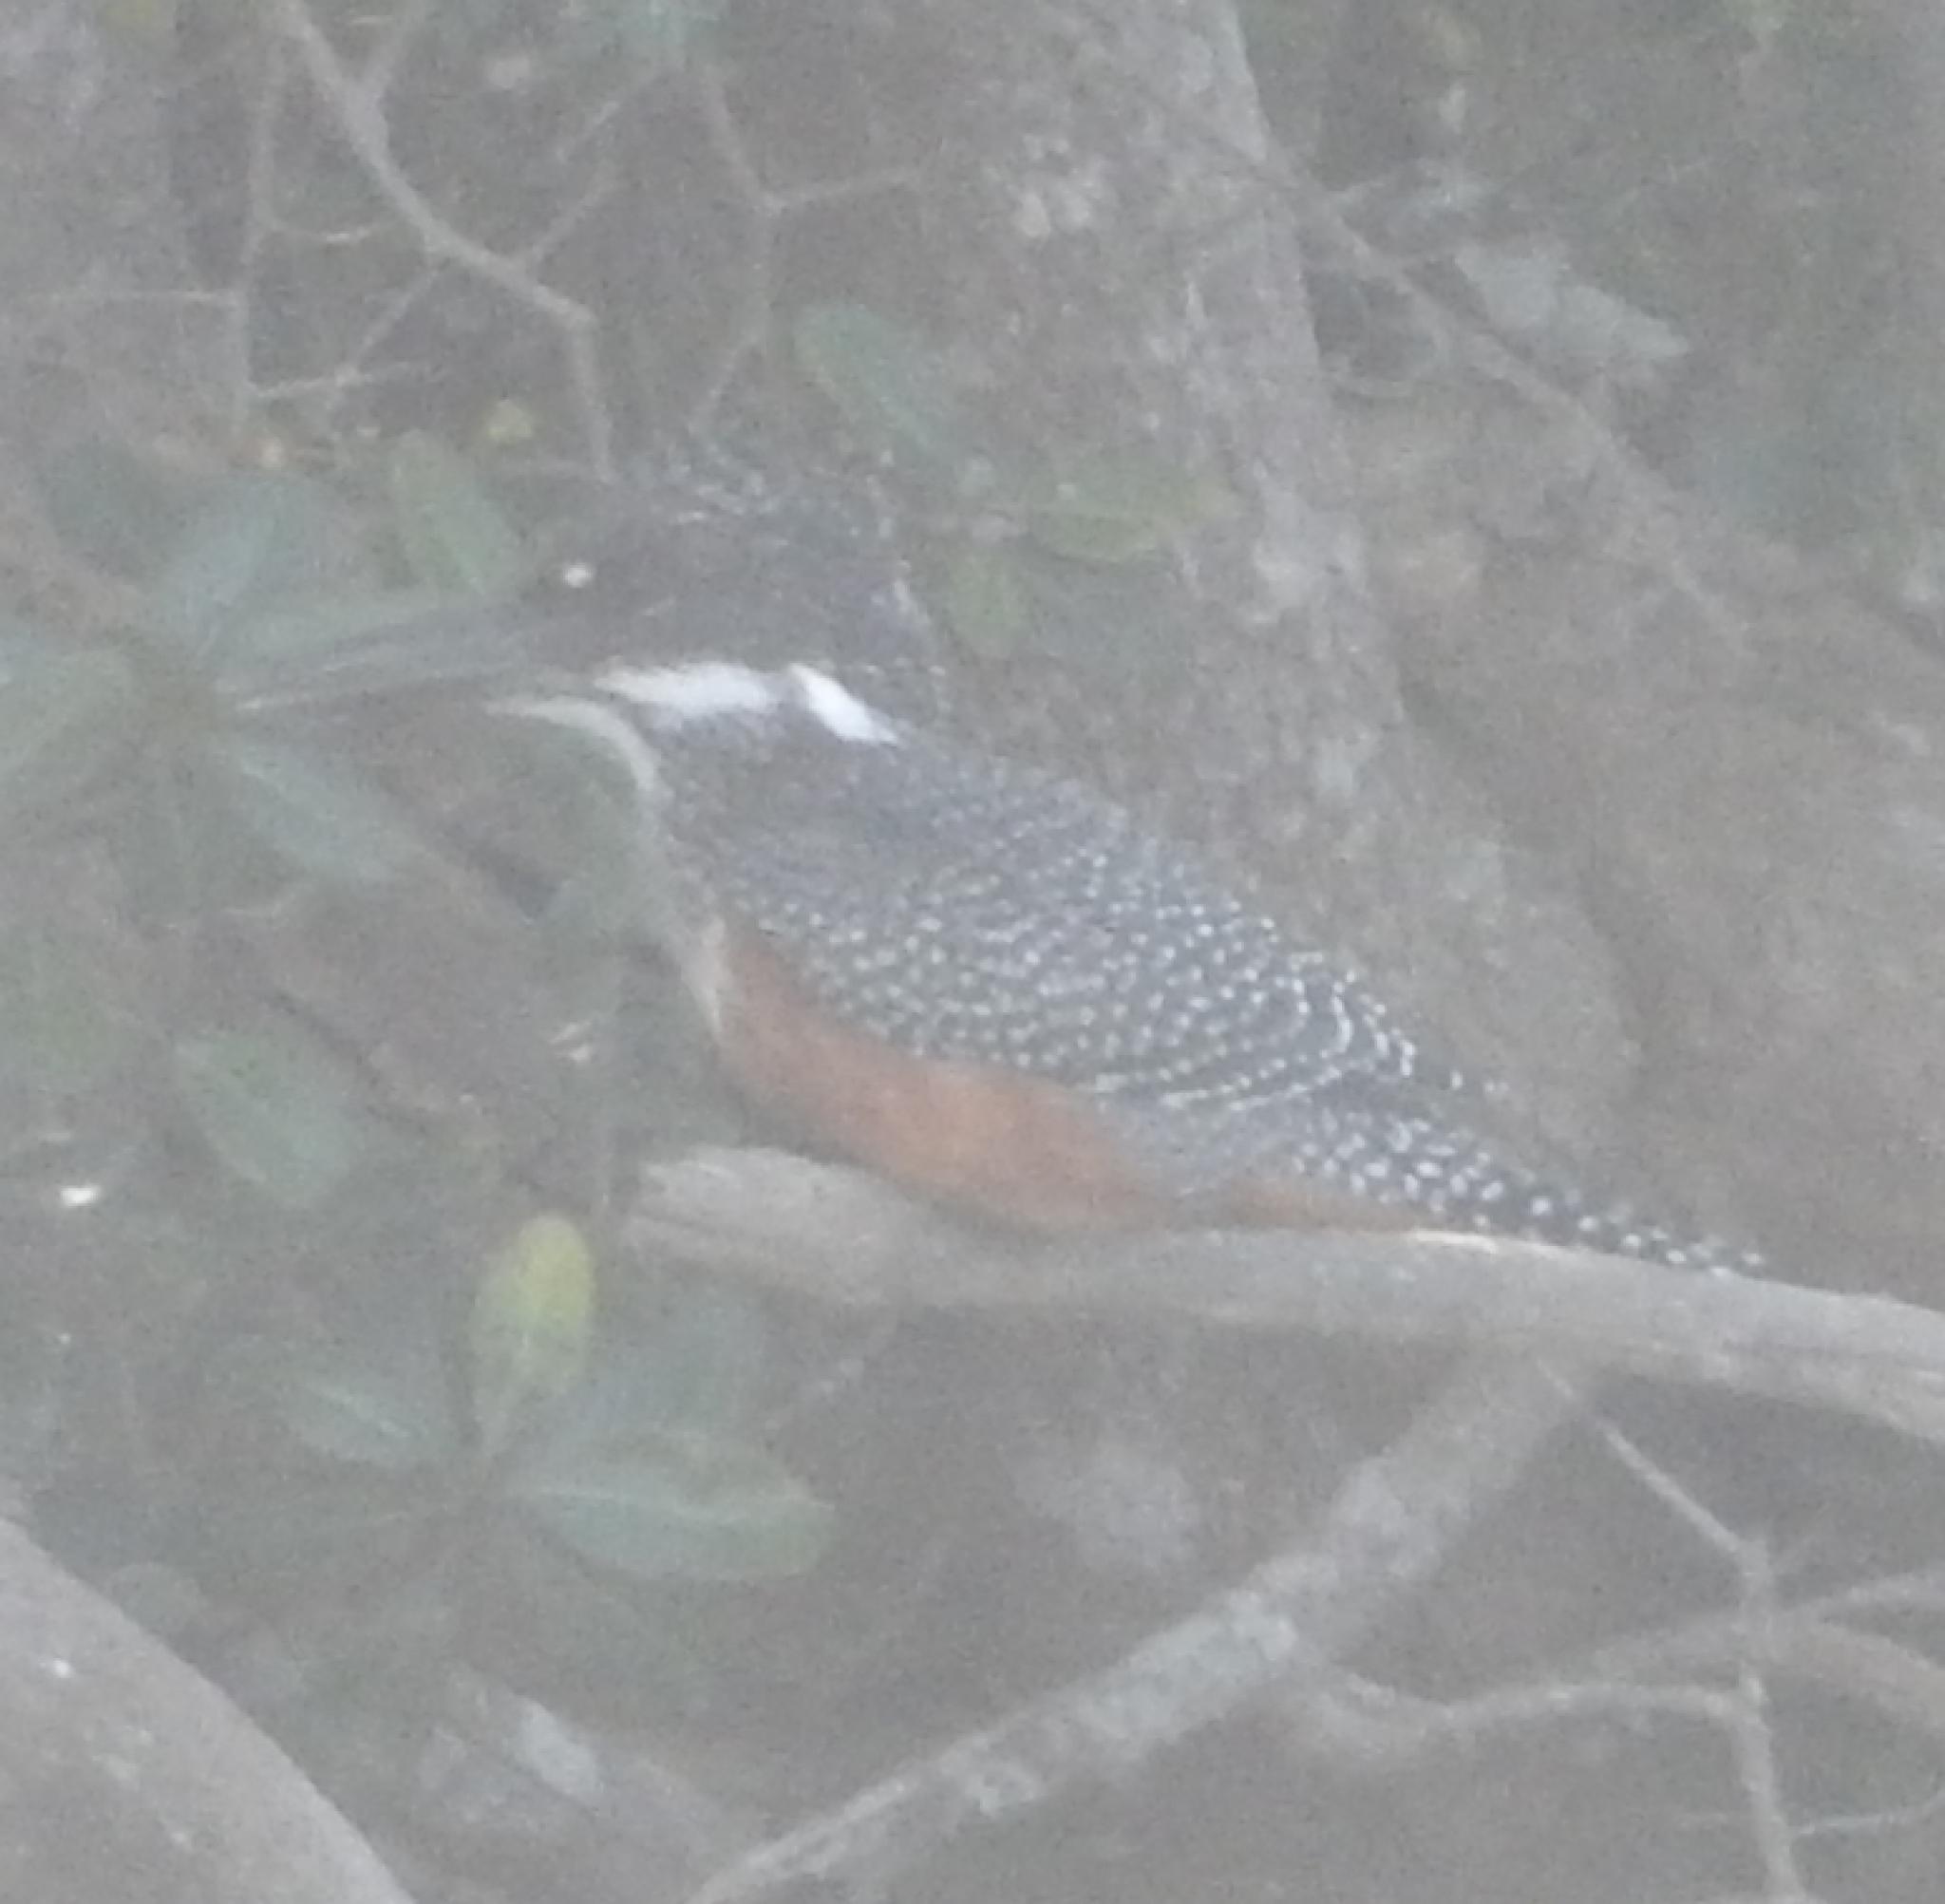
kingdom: Animalia
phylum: Chordata
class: Aves
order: Coraciiformes
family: Alcedinidae
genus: Megaceryle
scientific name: Megaceryle maxima
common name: Giant kingfisher
